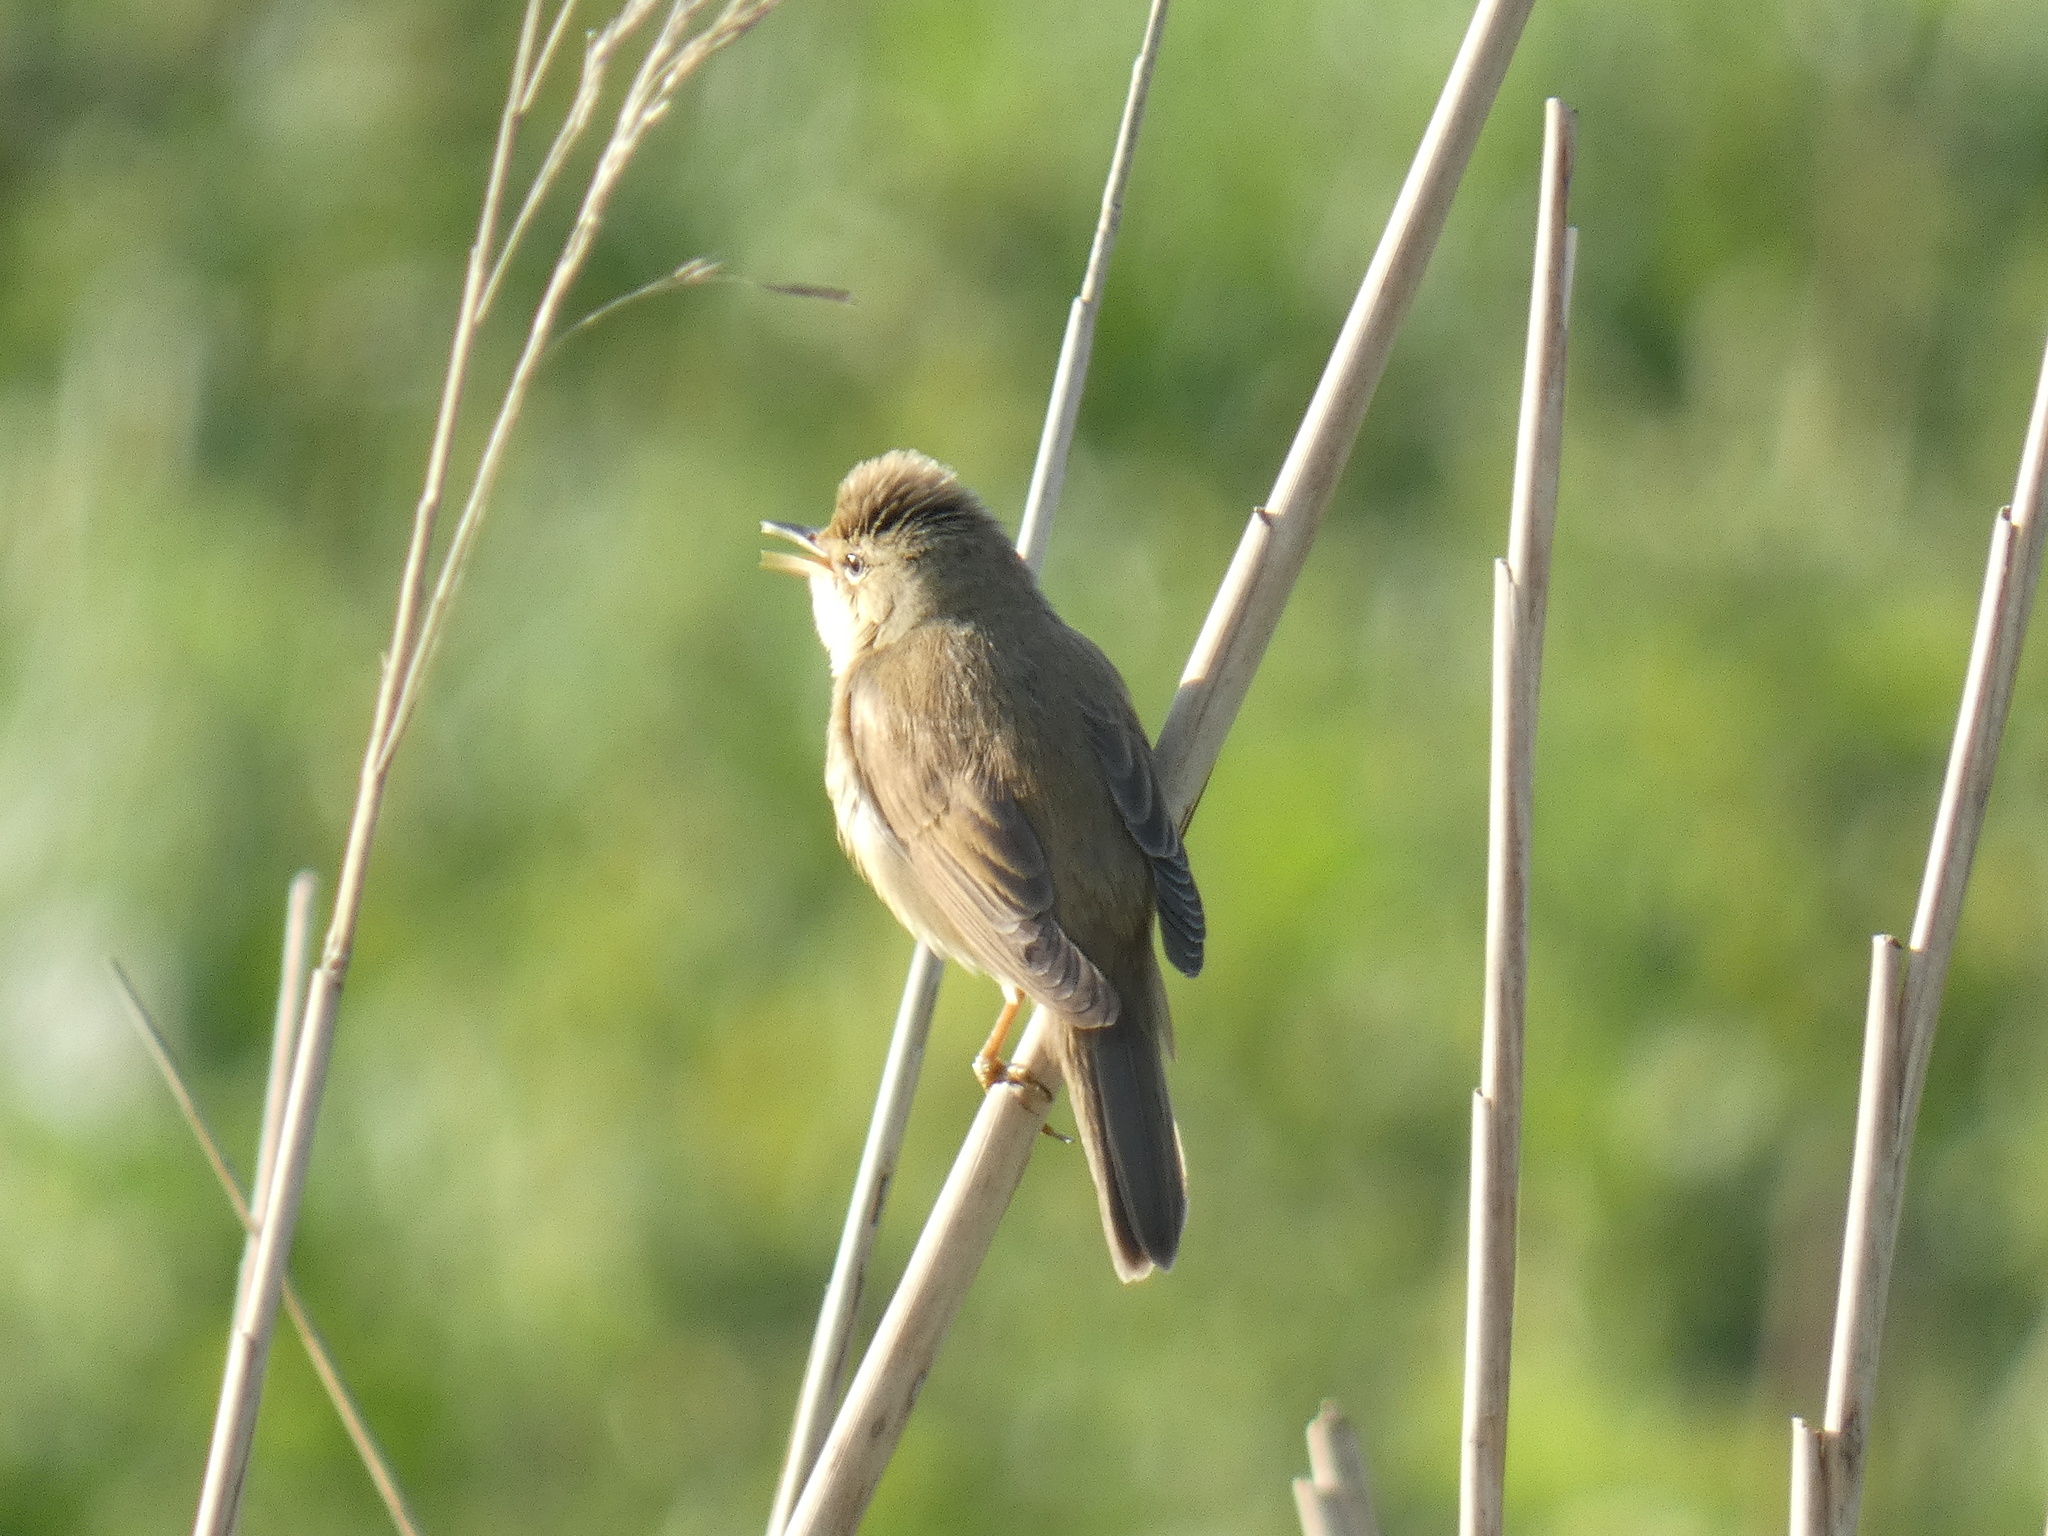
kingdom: Animalia
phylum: Chordata
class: Aves
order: Passeriformes
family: Acrocephalidae
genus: Acrocephalus
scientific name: Acrocephalus palustris
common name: Marsh warbler
